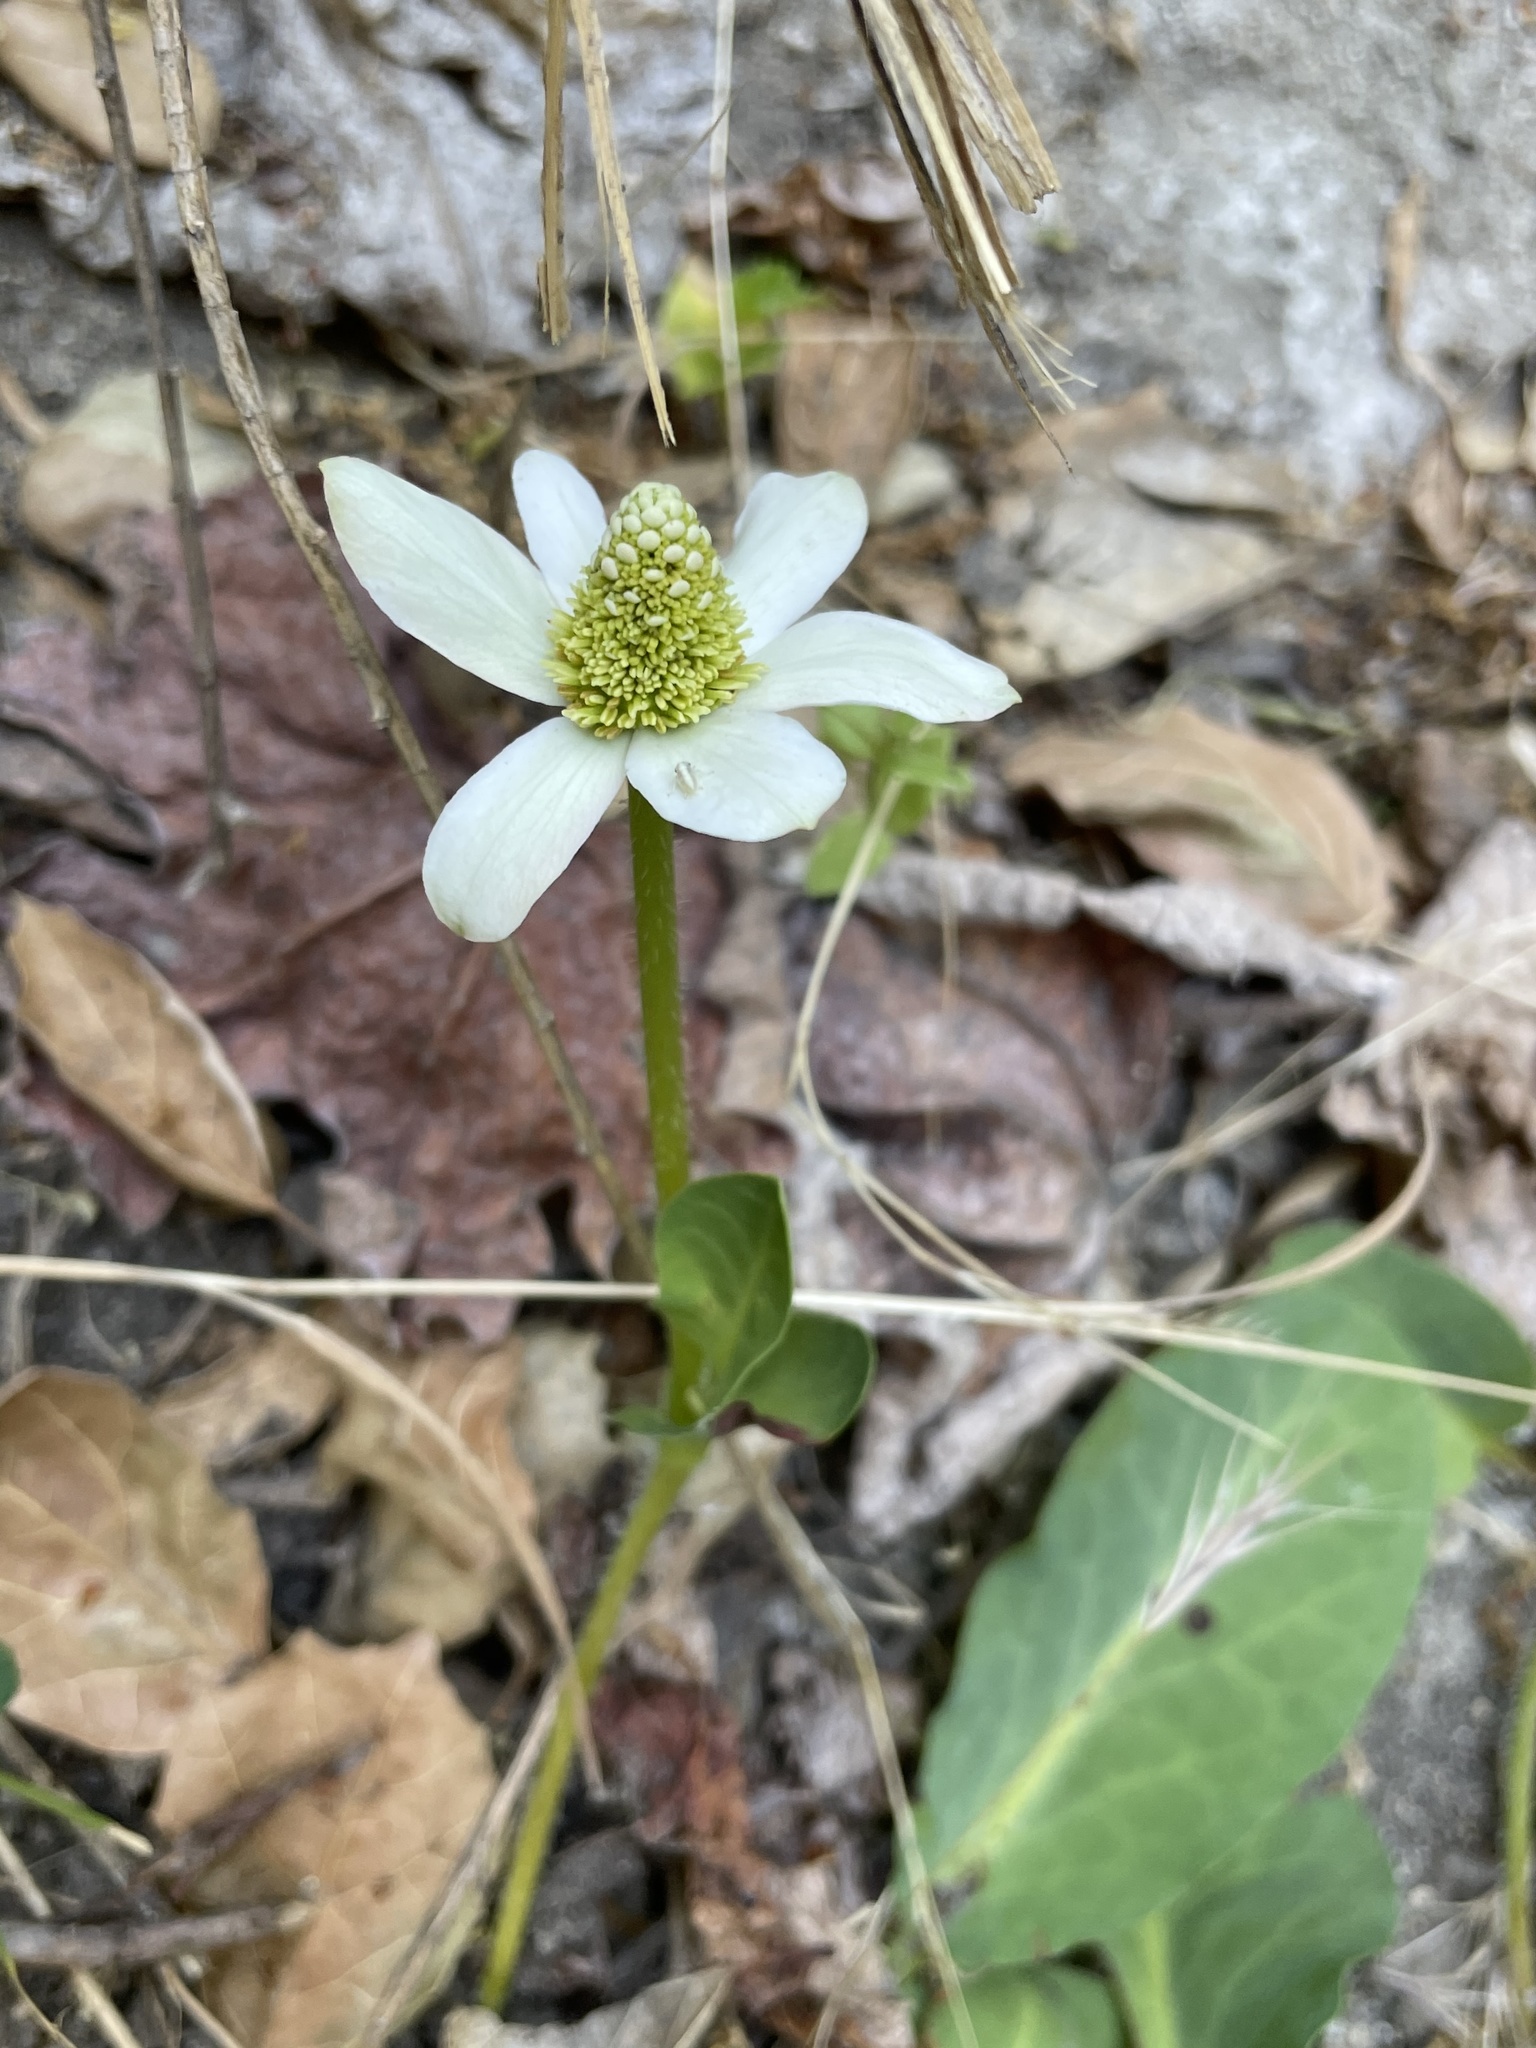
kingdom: Plantae
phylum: Tracheophyta
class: Magnoliopsida
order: Piperales
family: Saururaceae
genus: Anemopsis
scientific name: Anemopsis californica
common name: Apache-beads
